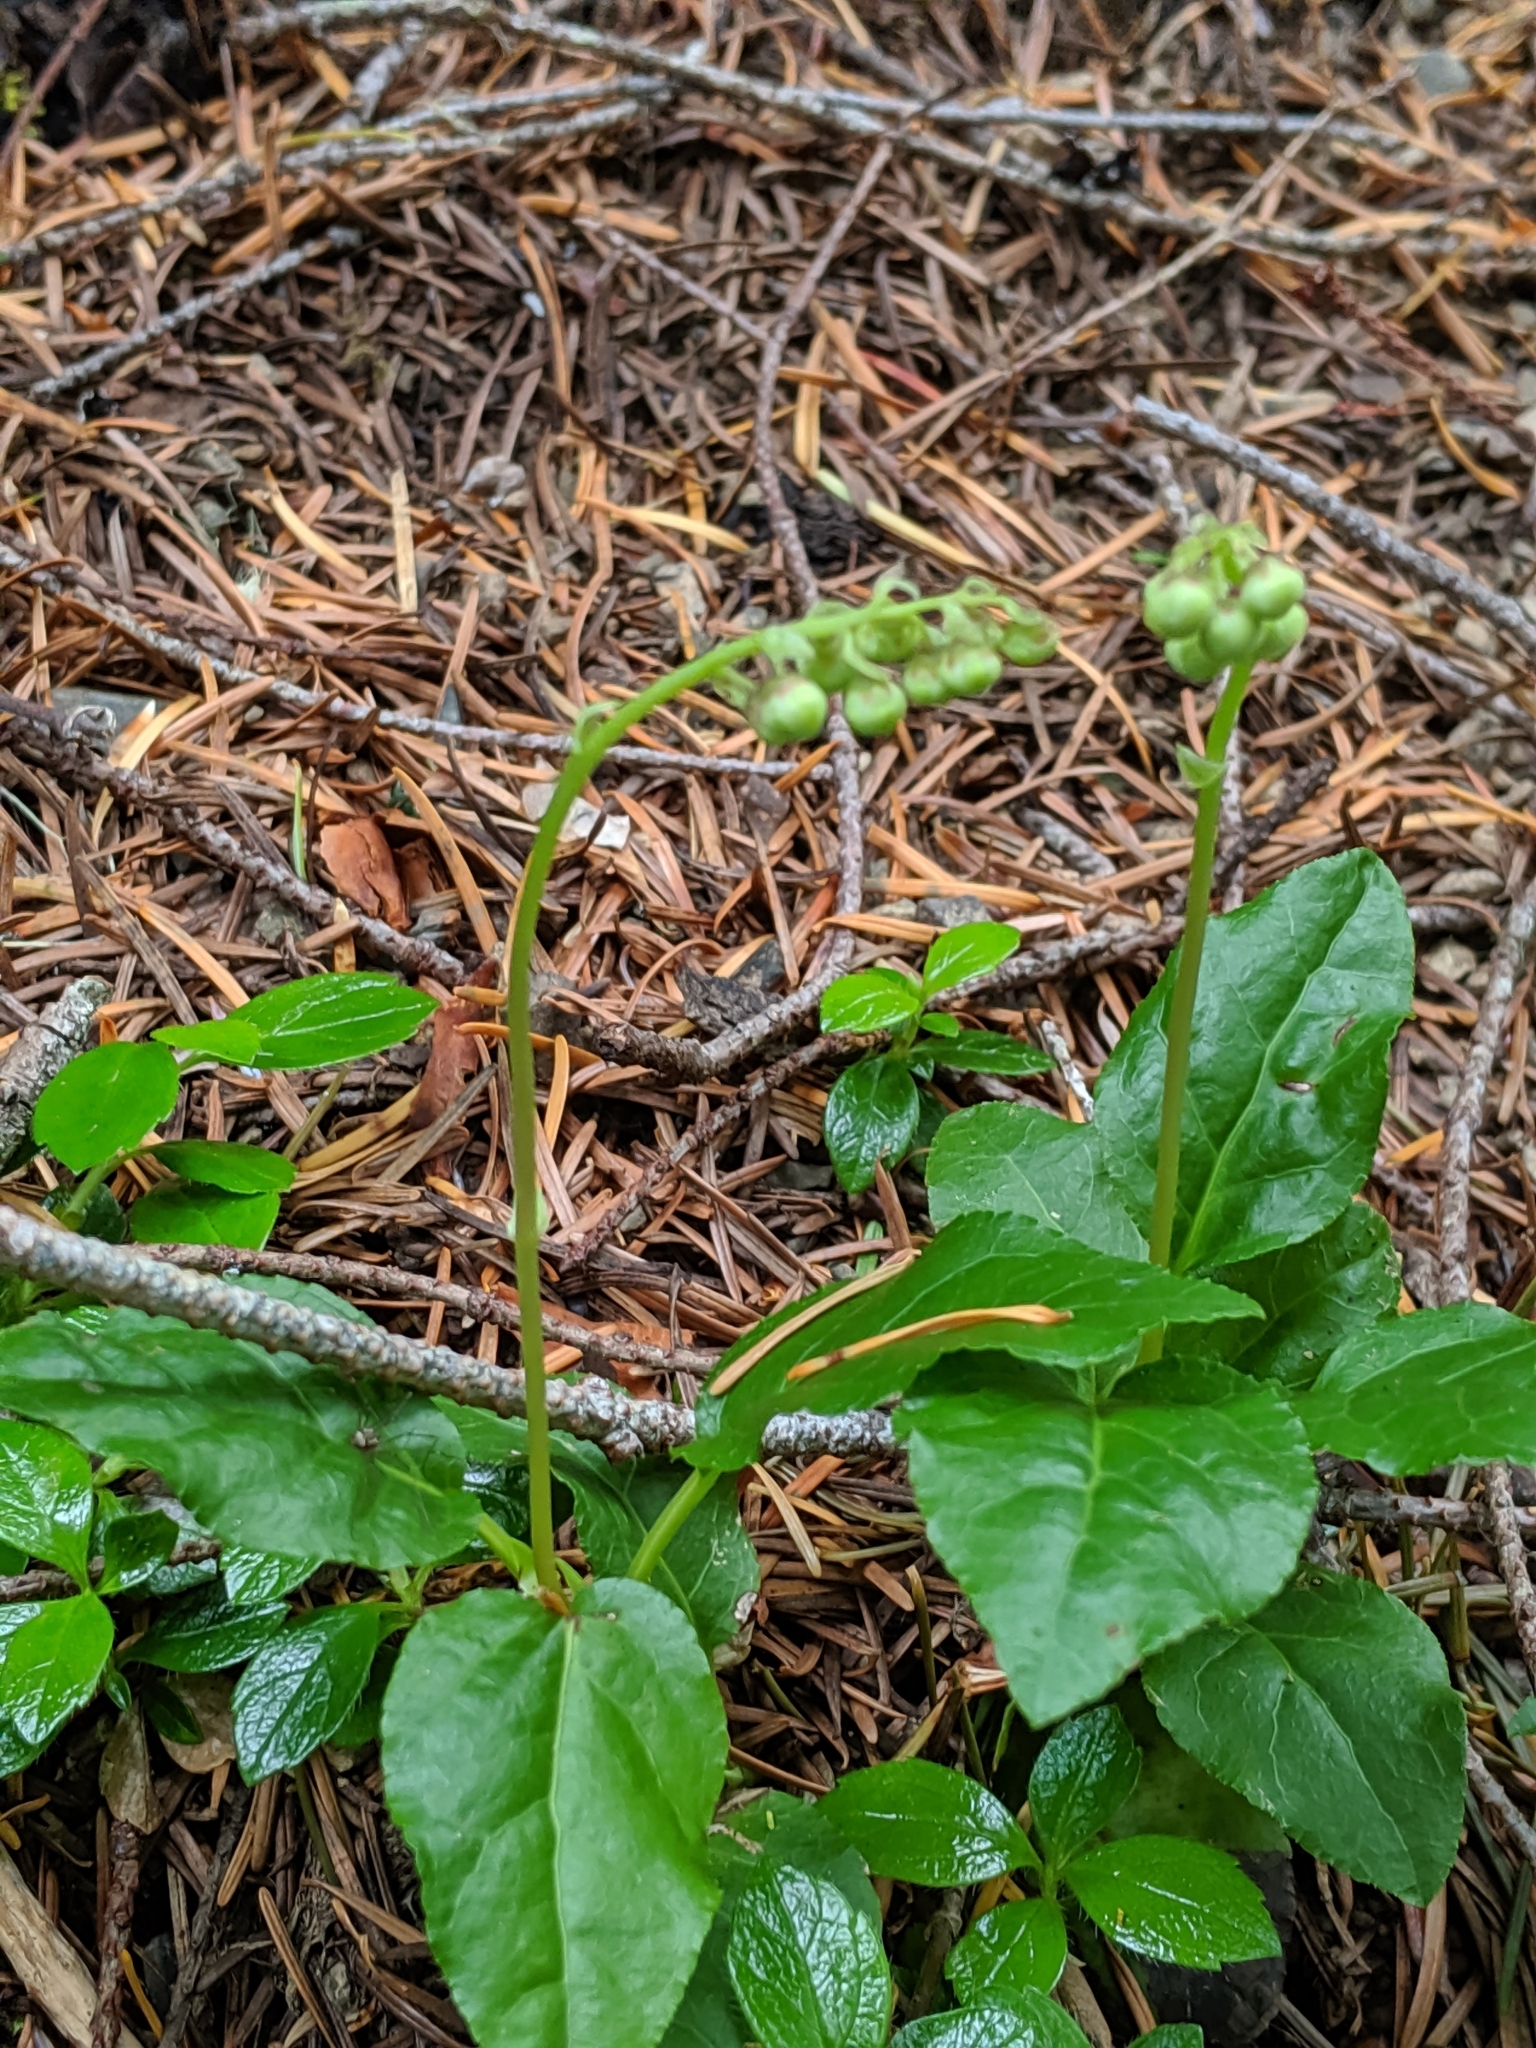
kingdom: Plantae
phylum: Tracheophyta
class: Magnoliopsida
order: Ericales
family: Ericaceae
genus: Orthilia
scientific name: Orthilia secunda
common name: One-sided orthilia
